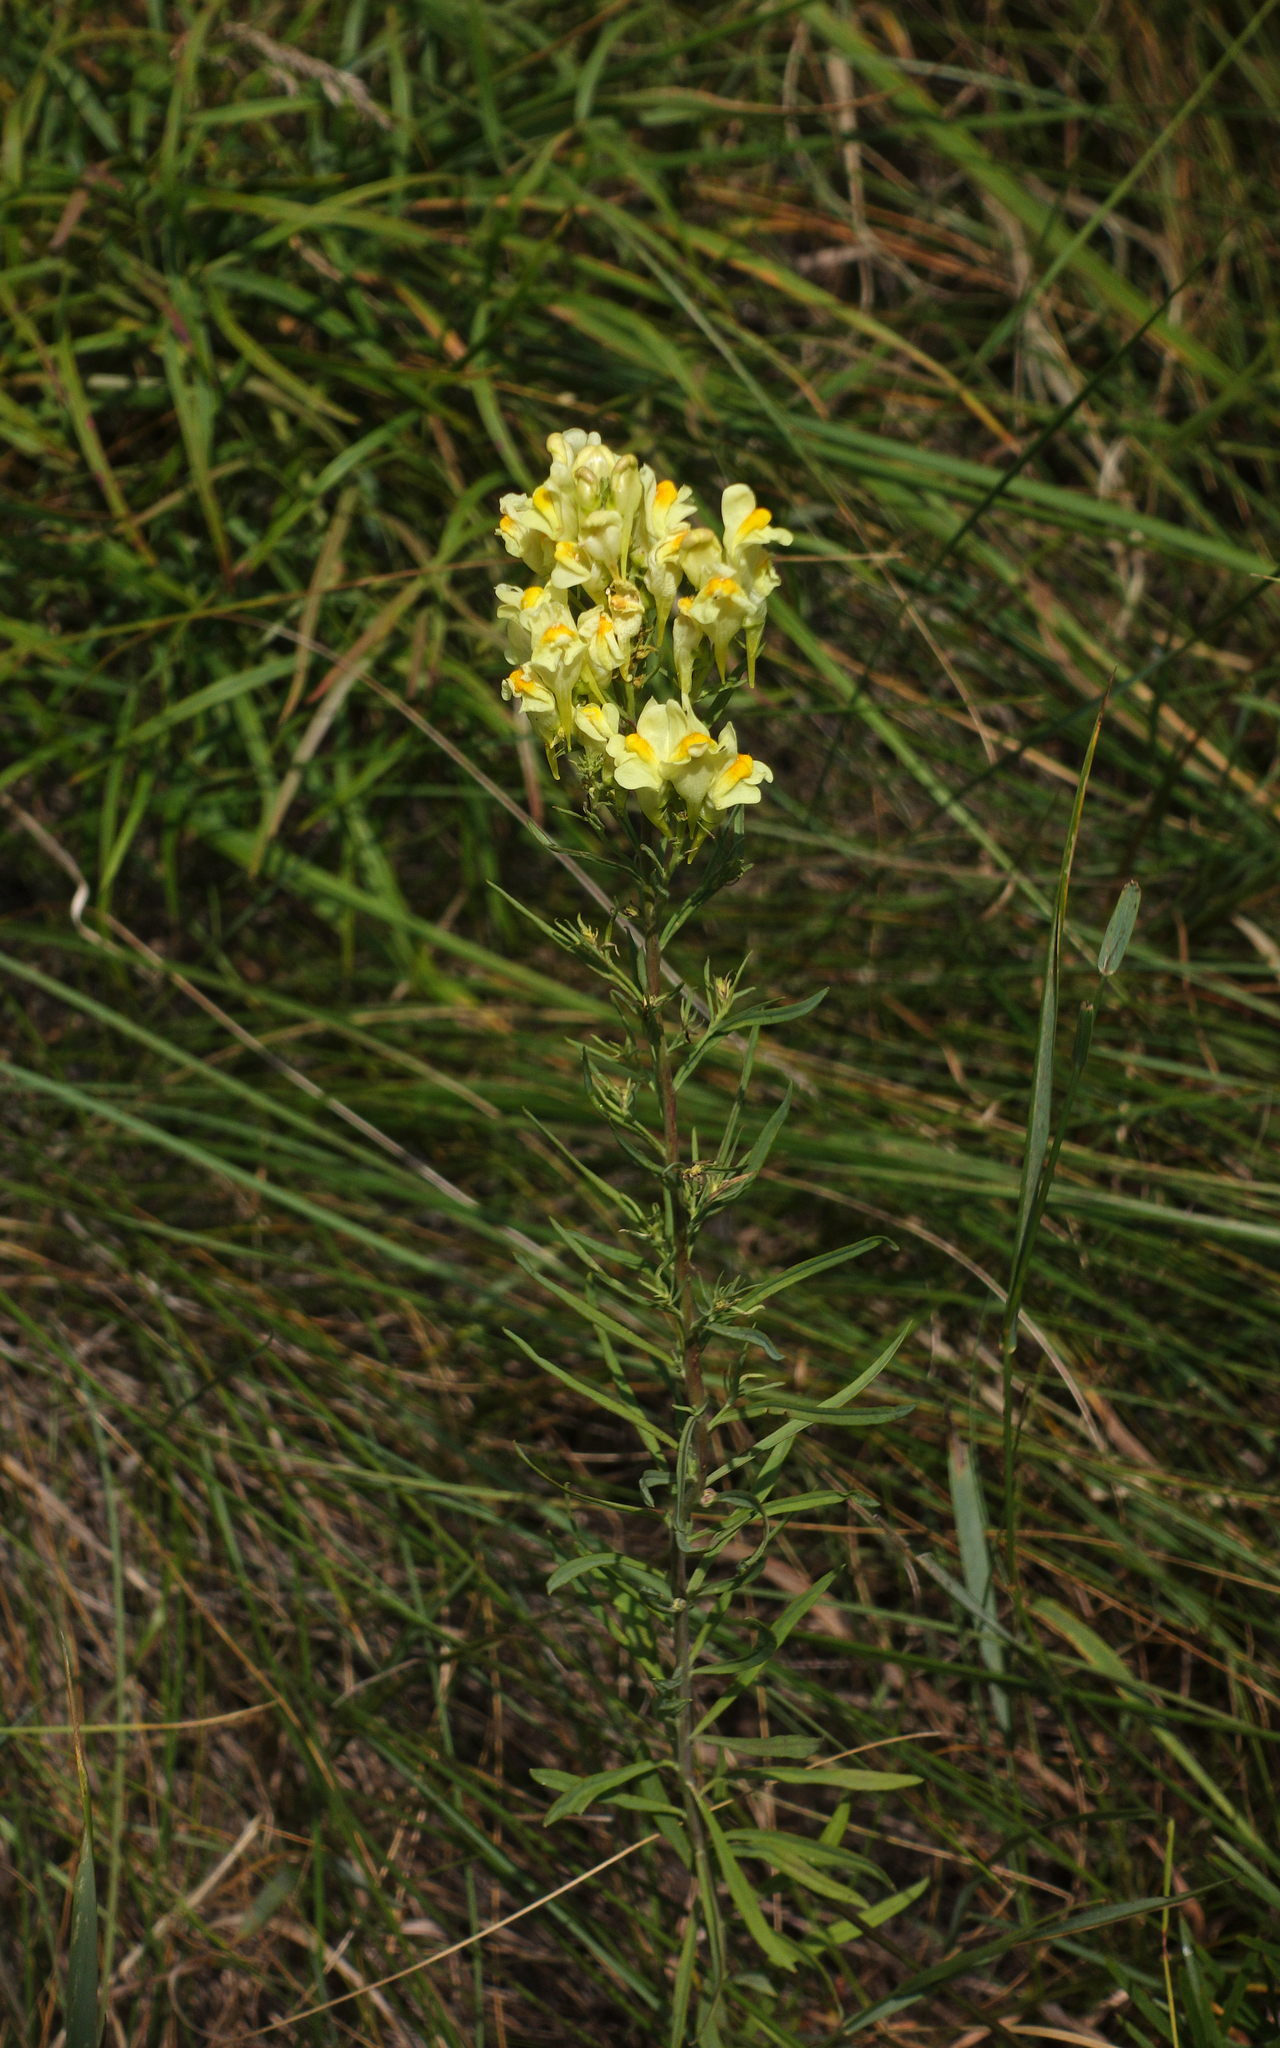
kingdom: Plantae
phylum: Tracheophyta
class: Magnoliopsida
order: Lamiales
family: Plantaginaceae
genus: Linaria
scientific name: Linaria vulgaris
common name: Butter and eggs
